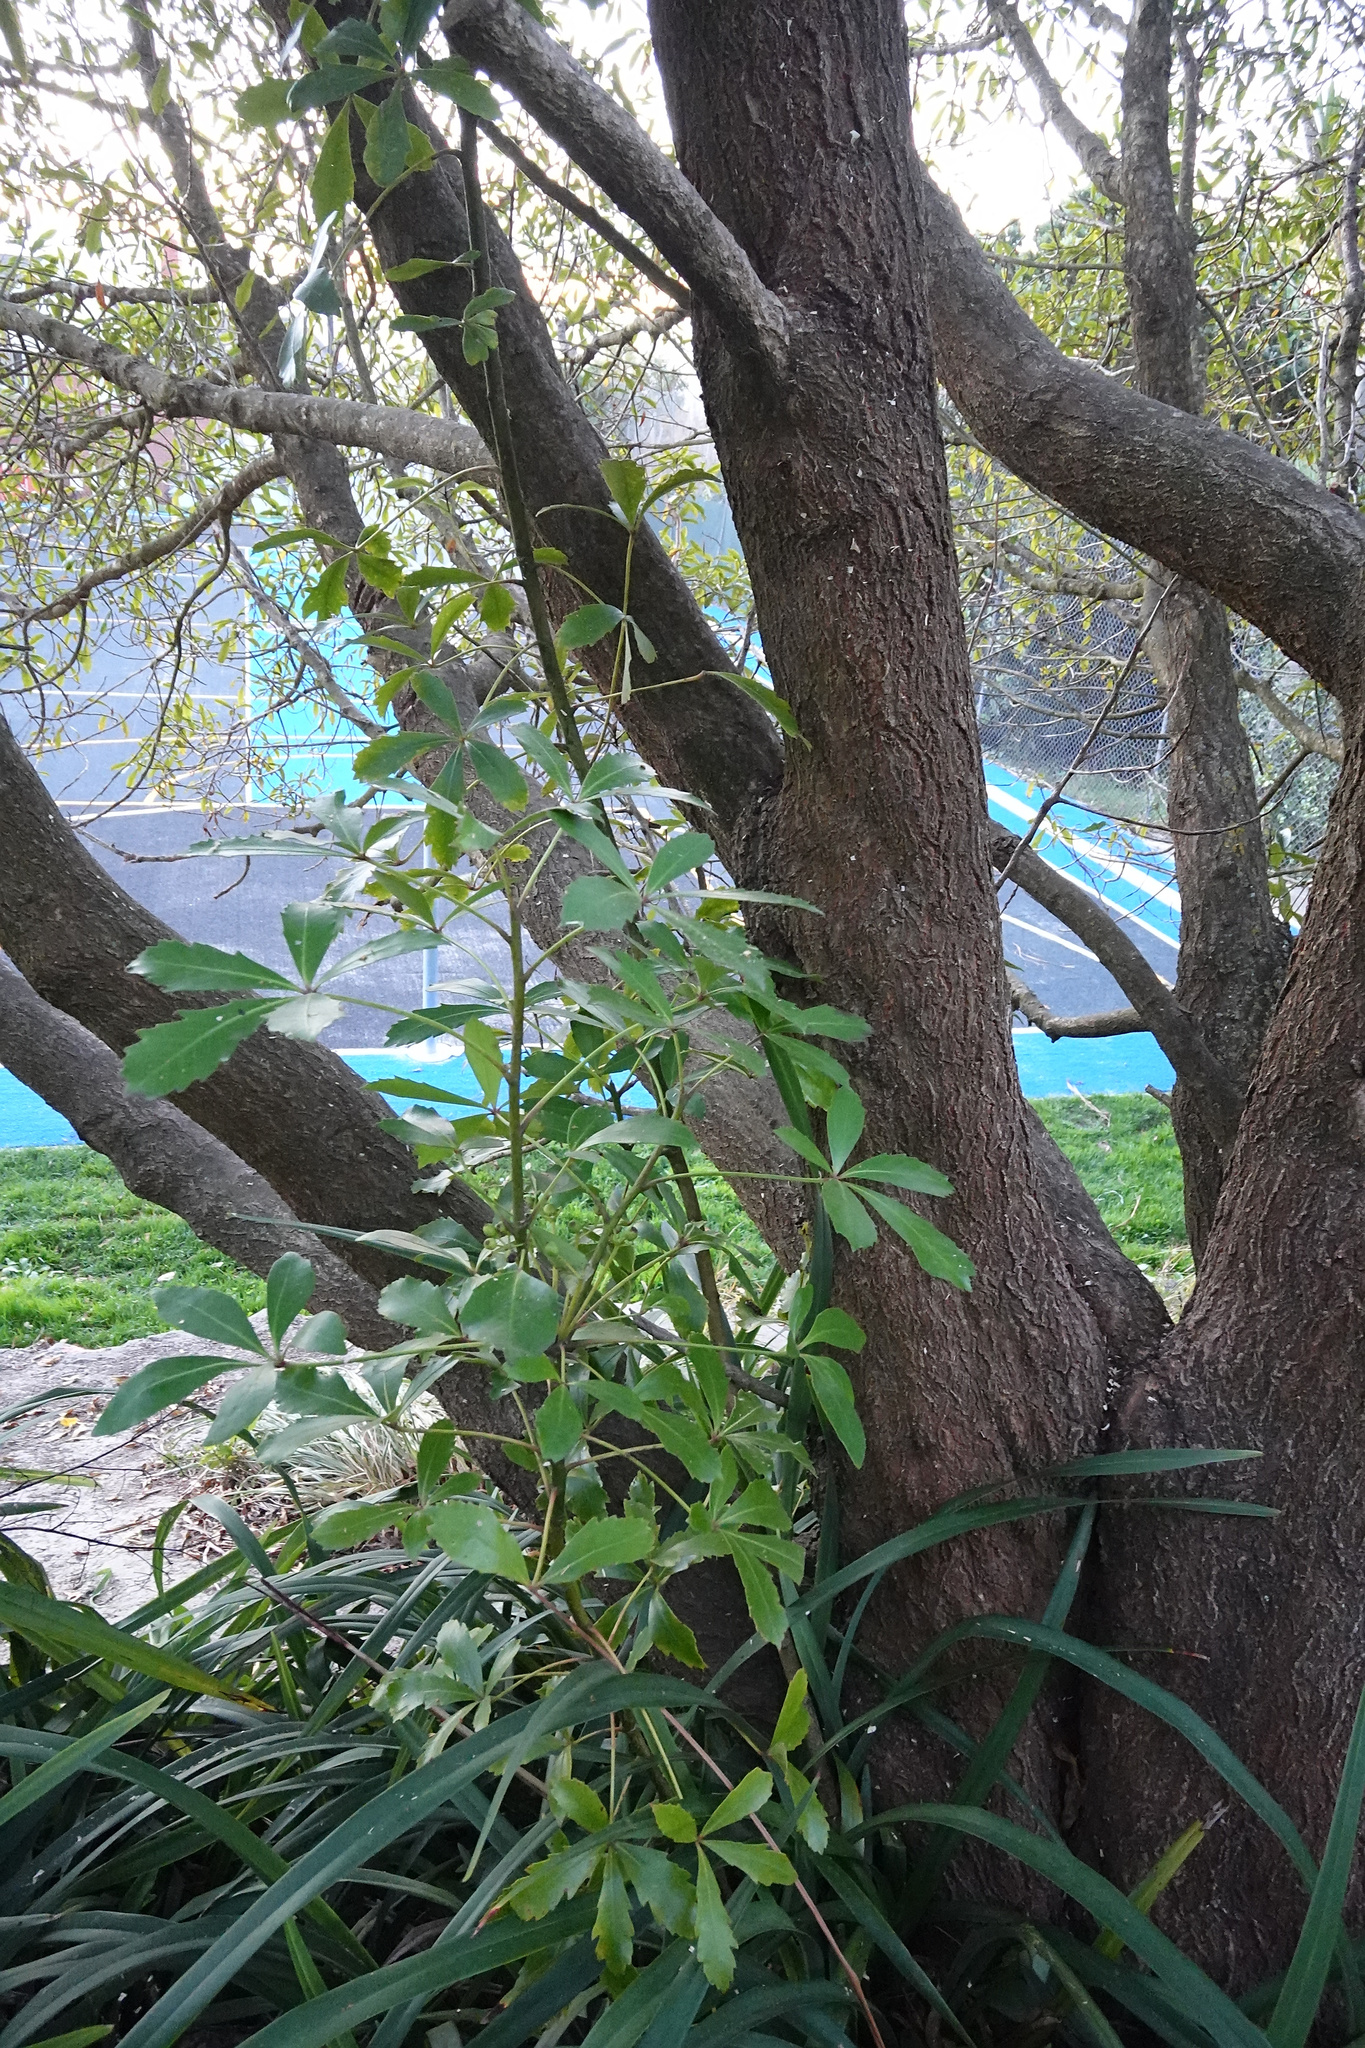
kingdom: Plantae
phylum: Tracheophyta
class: Magnoliopsida
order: Apiales
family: Araliaceae
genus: Pseudopanax
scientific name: Pseudopanax lessonii
